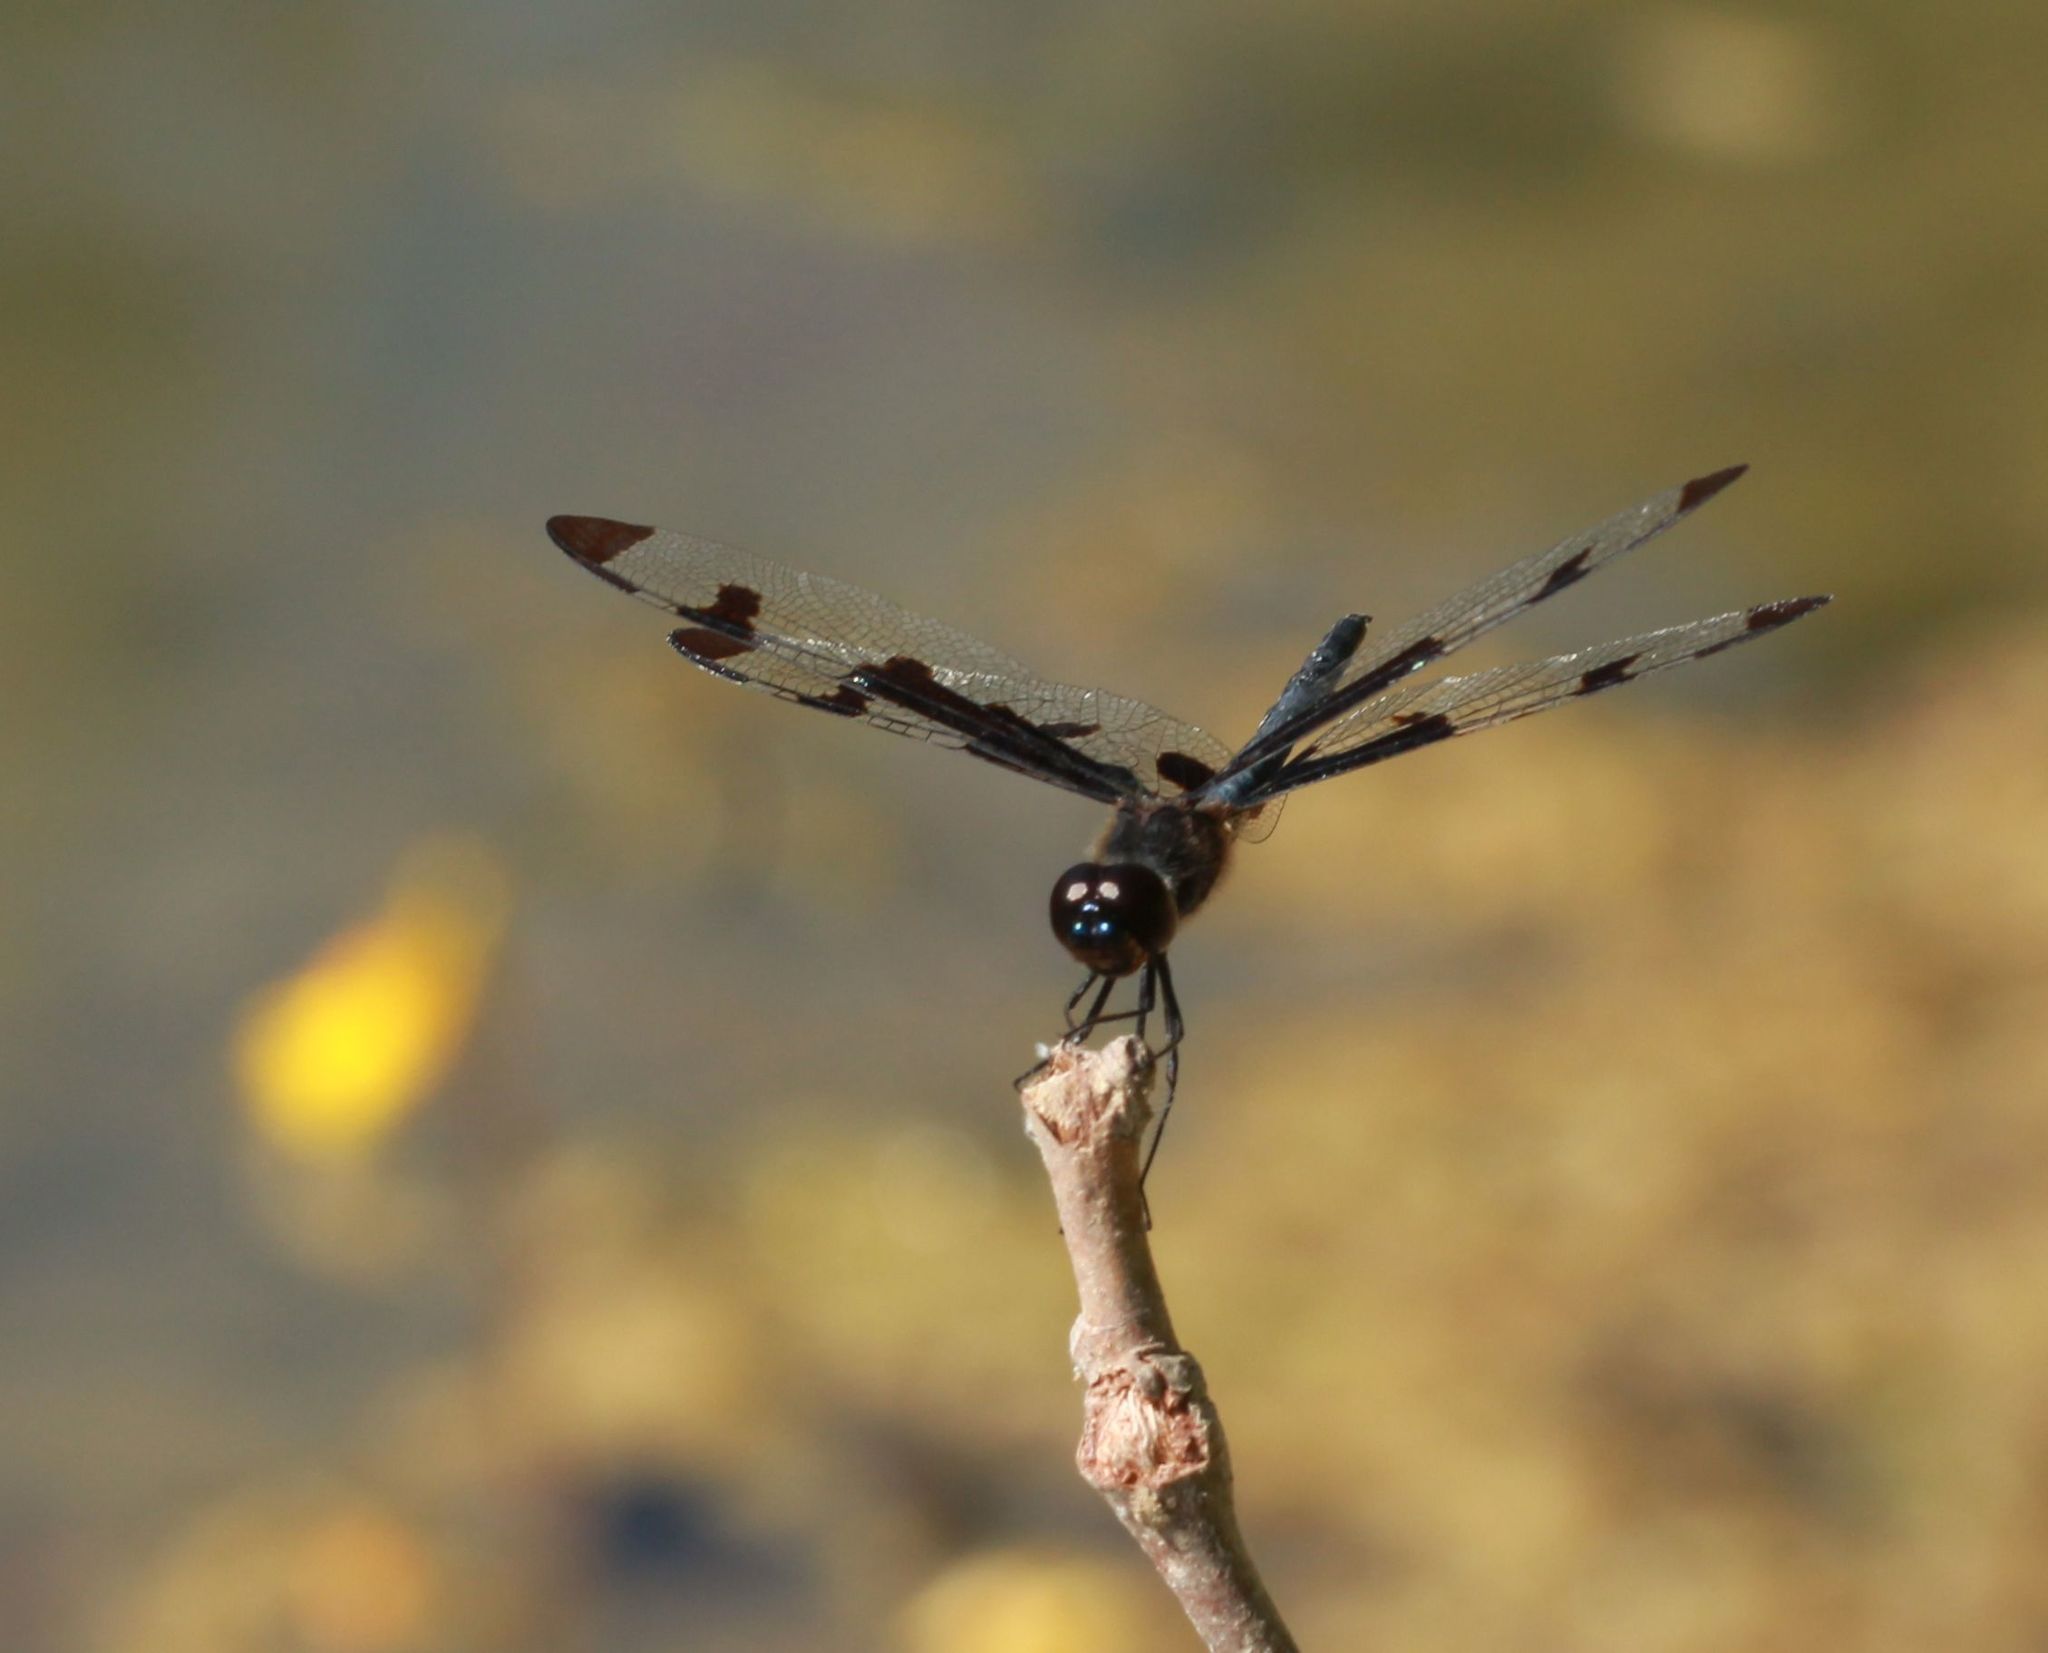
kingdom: Animalia
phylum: Arthropoda
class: Insecta
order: Odonata
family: Libellulidae
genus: Celithemis
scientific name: Celithemis fasciata
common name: Banded pennant
